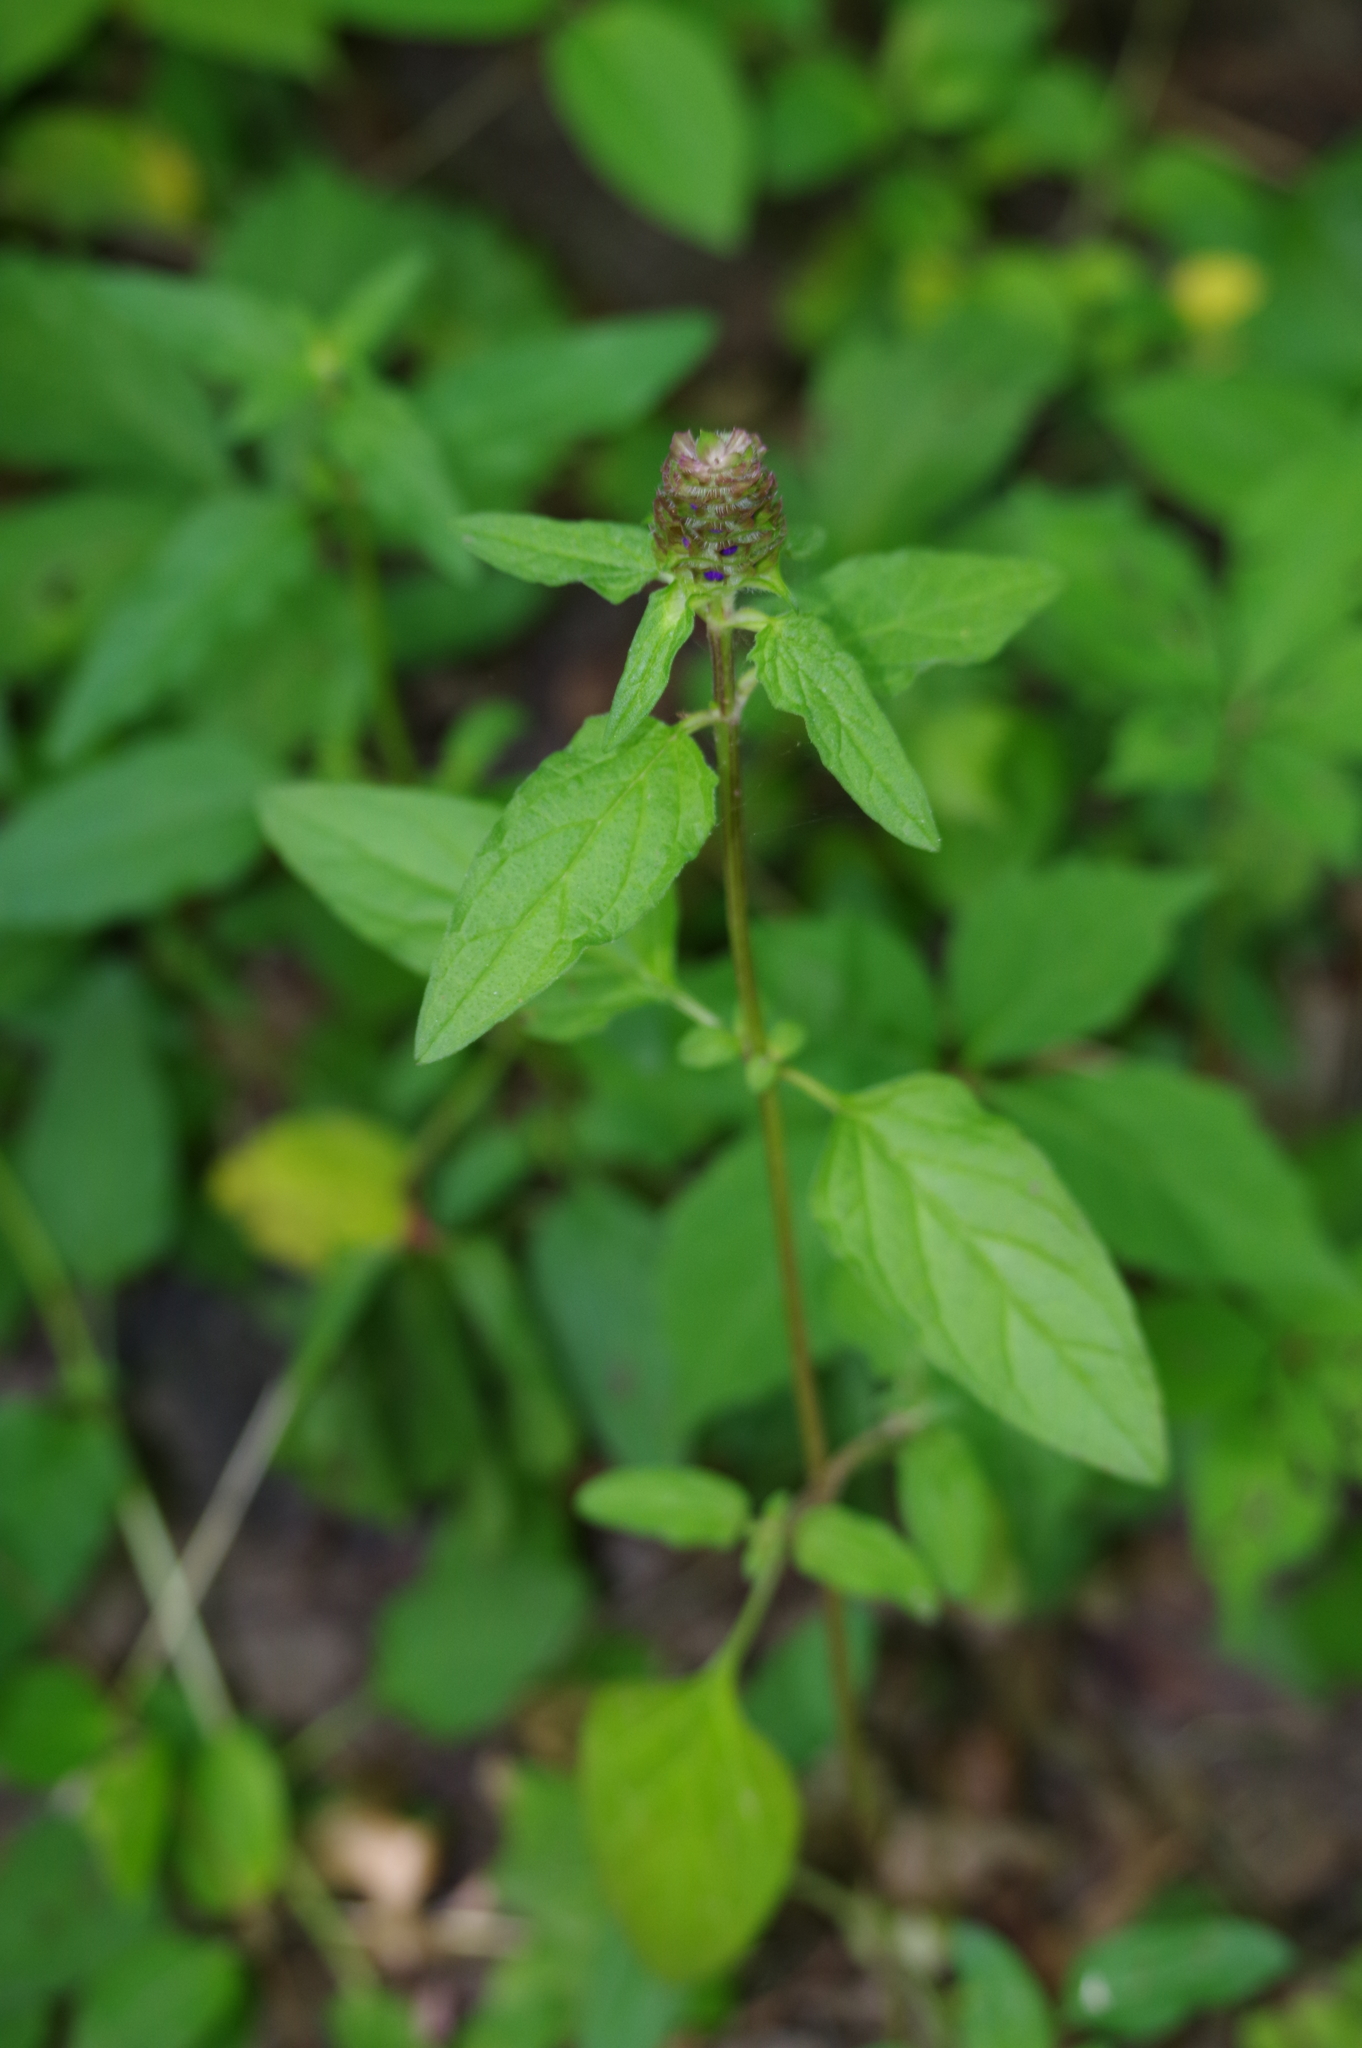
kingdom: Plantae
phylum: Tracheophyta
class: Magnoliopsida
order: Lamiales
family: Lamiaceae
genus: Prunella
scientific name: Prunella vulgaris
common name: Heal-all
